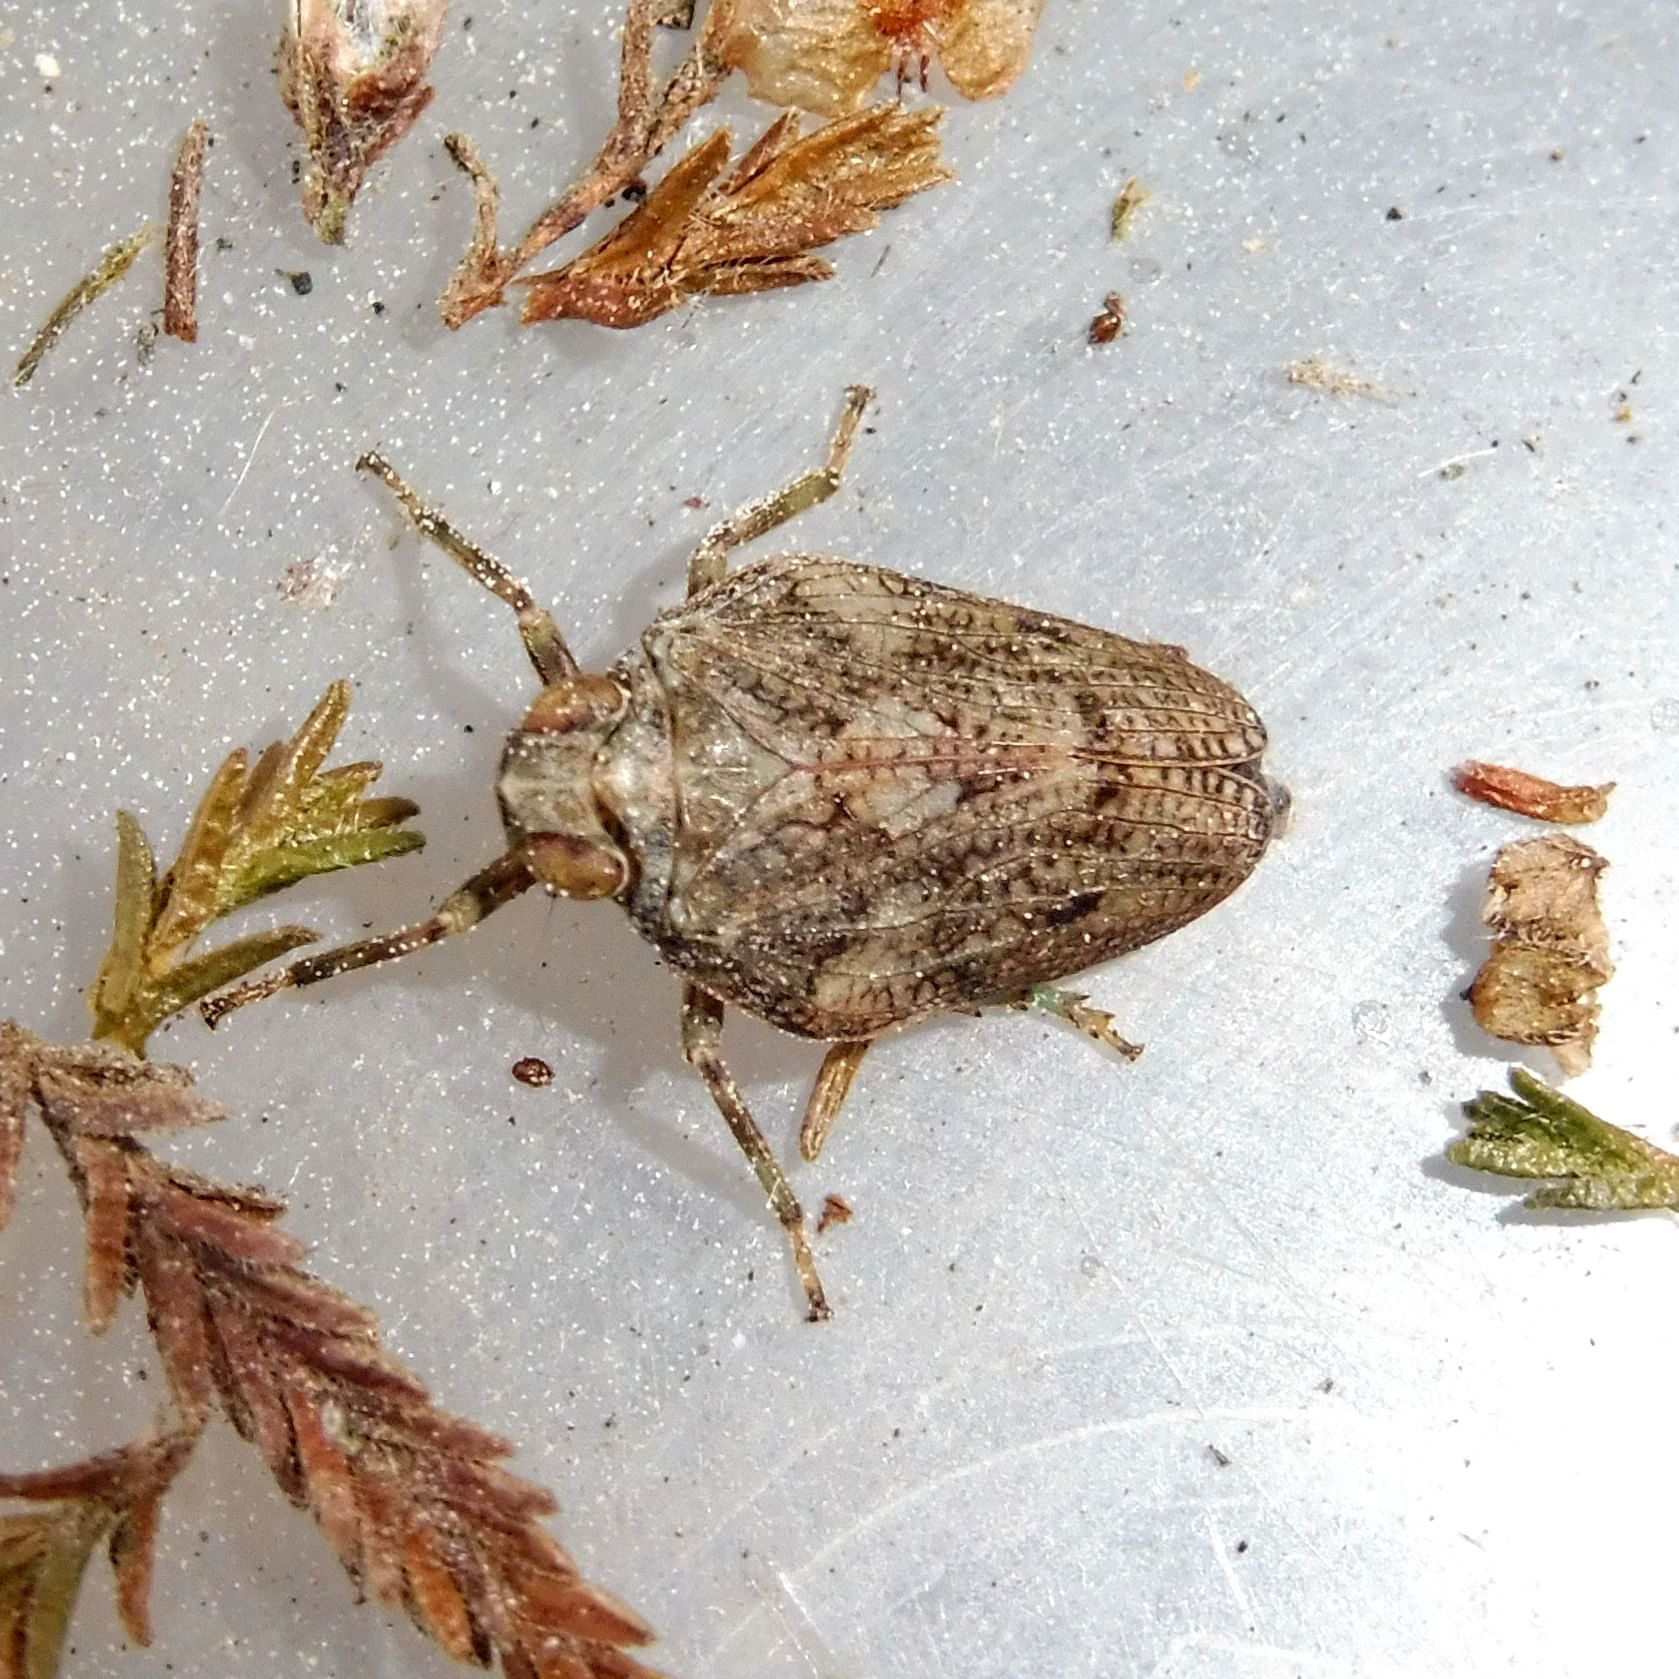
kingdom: Animalia
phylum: Arthropoda
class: Insecta
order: Hemiptera
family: Issidae
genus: Issus
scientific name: Issus coleoptratus
